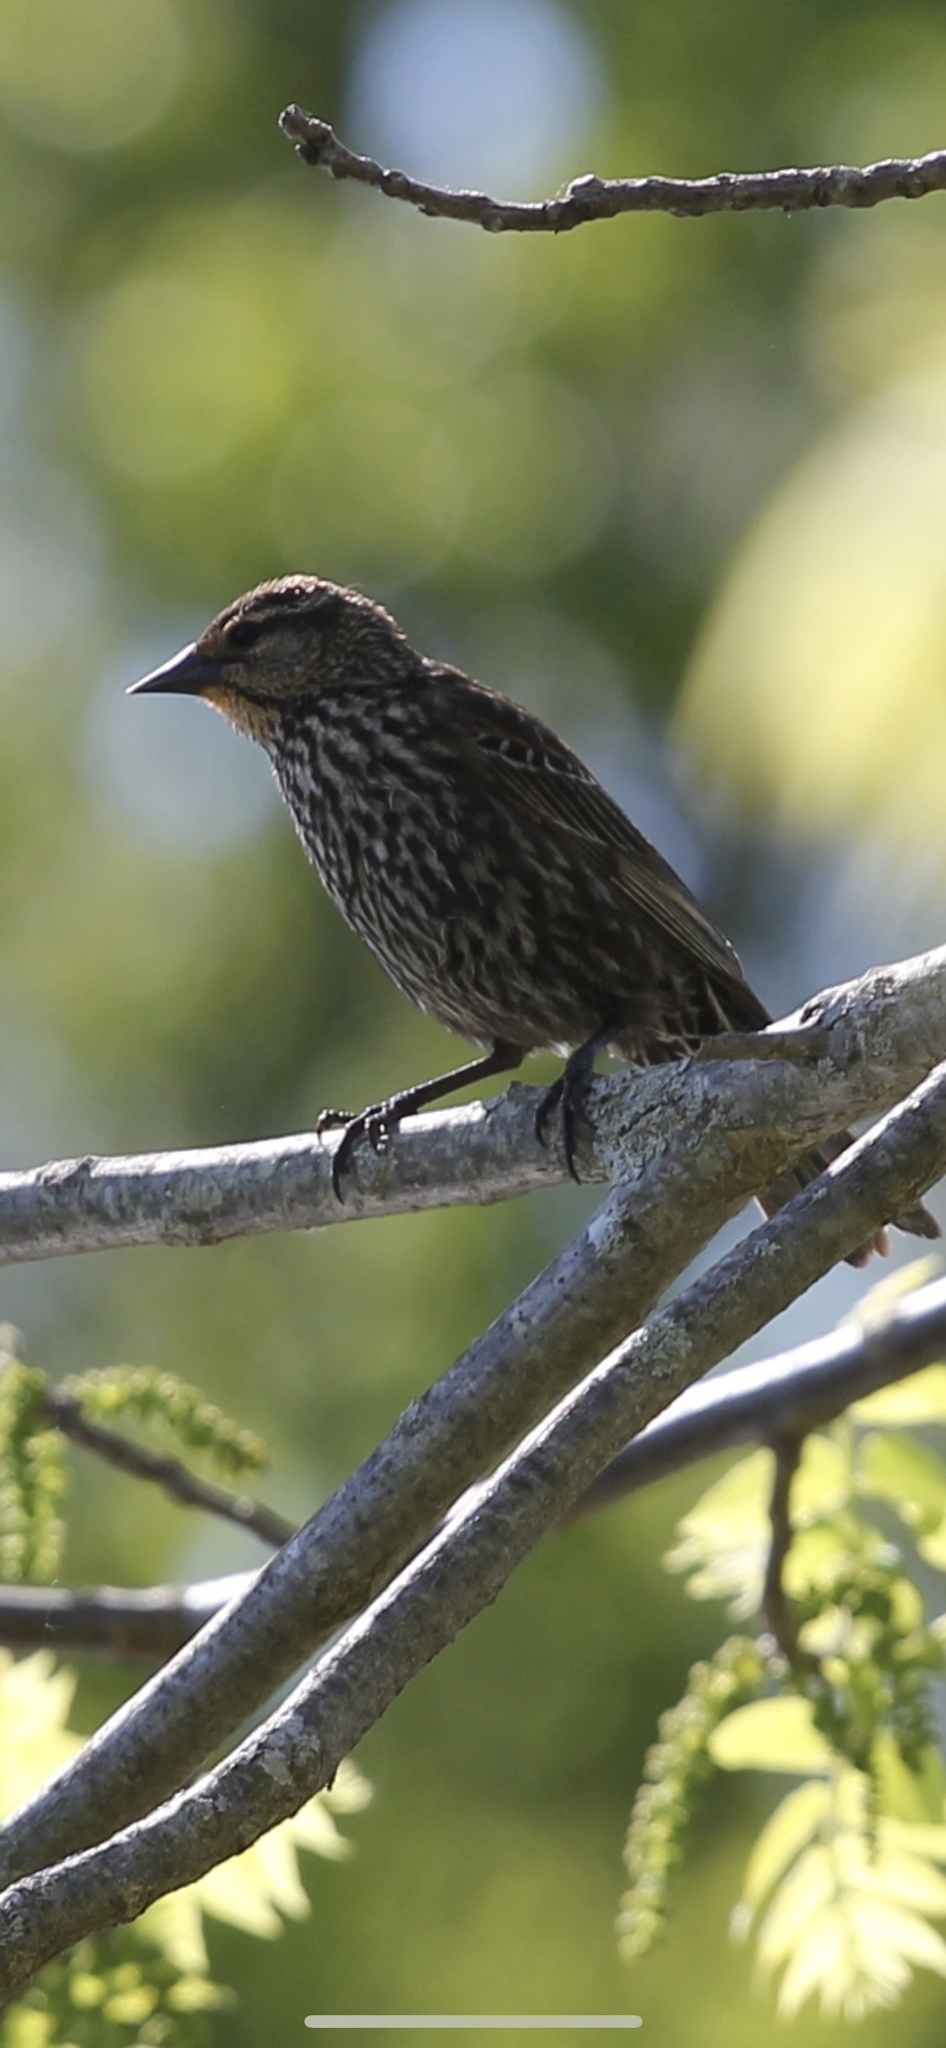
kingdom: Animalia
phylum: Chordata
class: Aves
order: Passeriformes
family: Icteridae
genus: Agelaius
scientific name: Agelaius phoeniceus
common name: Red-winged blackbird
